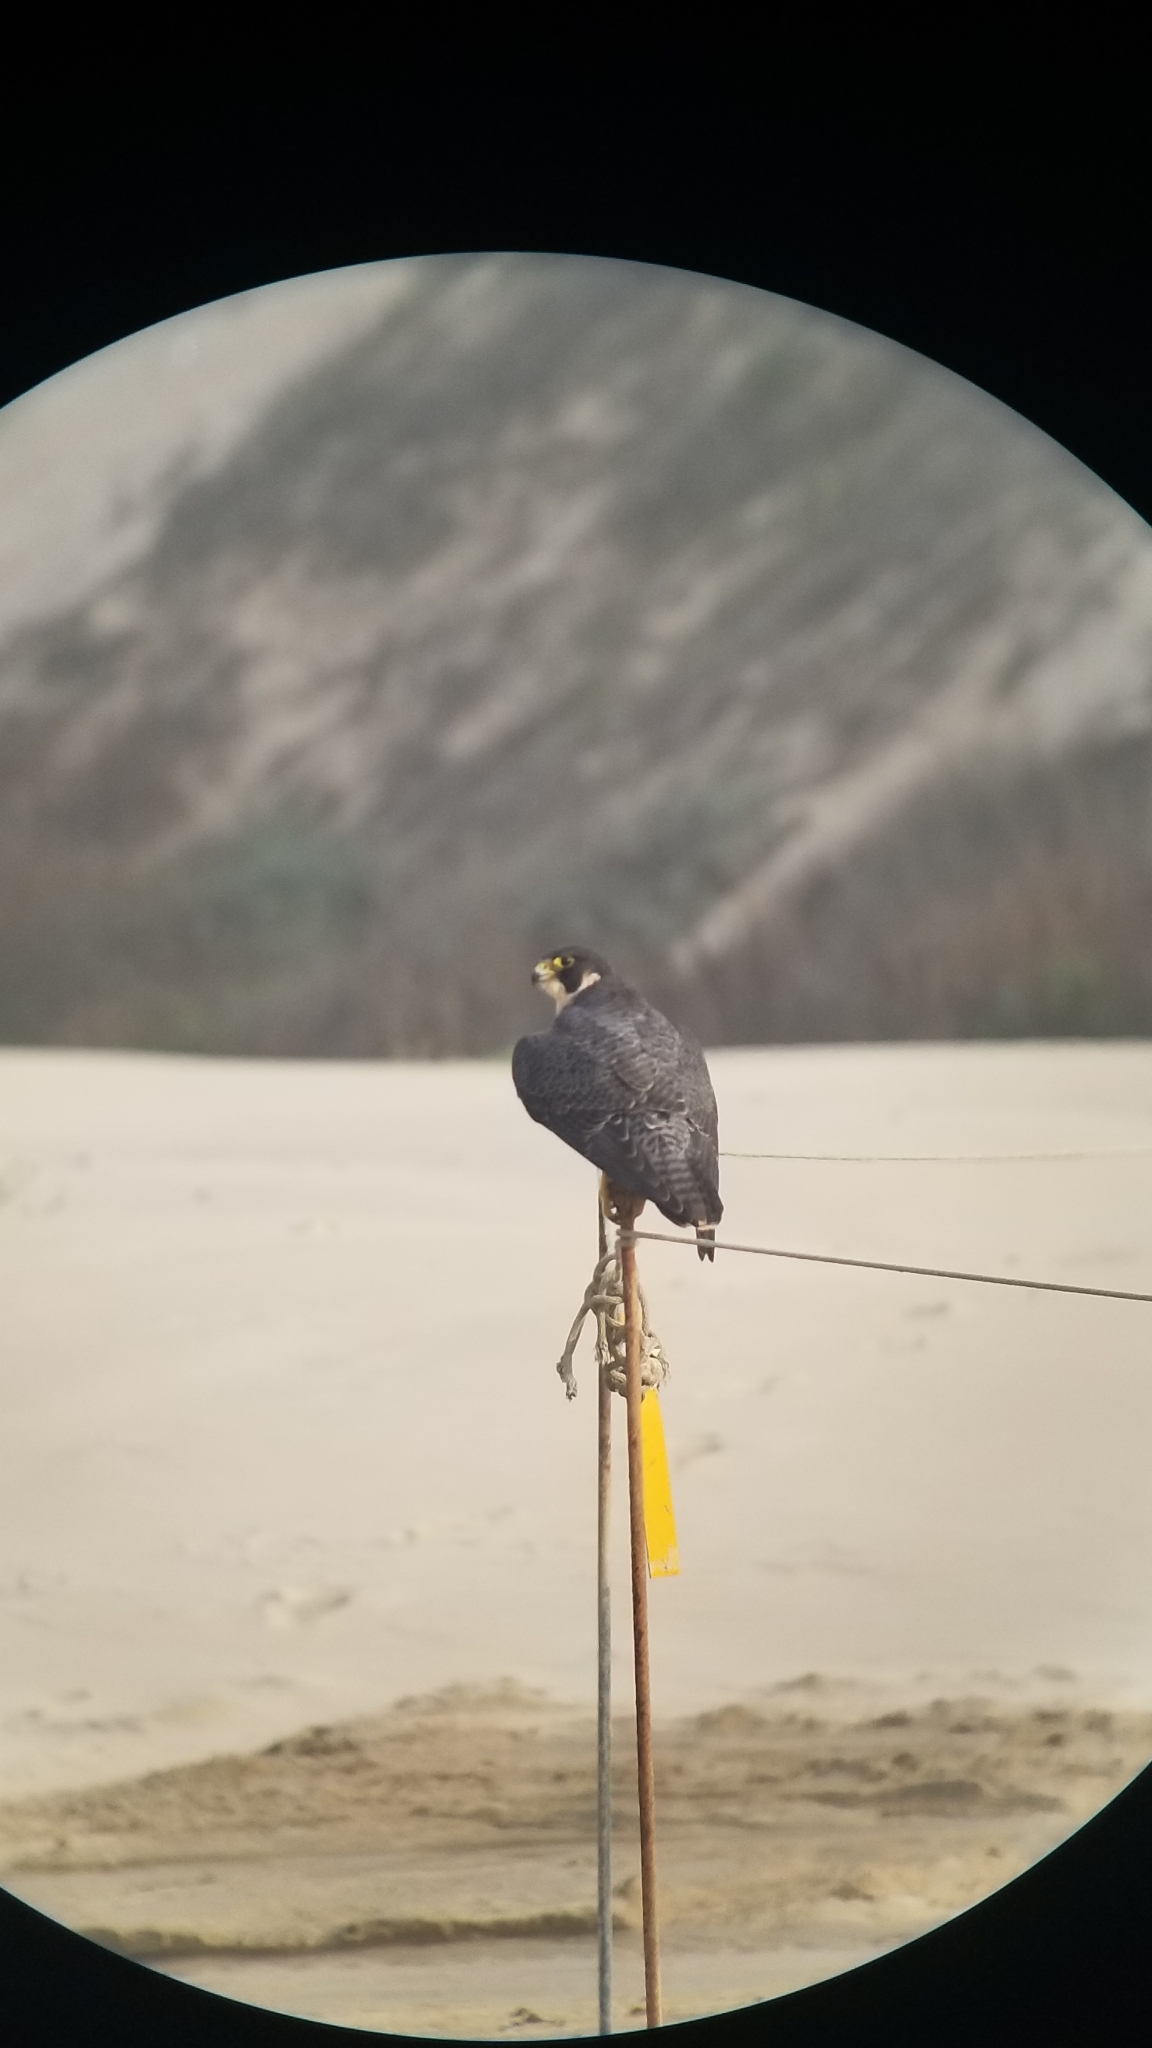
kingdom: Animalia
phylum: Chordata
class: Aves
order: Falconiformes
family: Falconidae
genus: Falco
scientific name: Falco peregrinus
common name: Peregrine falcon
